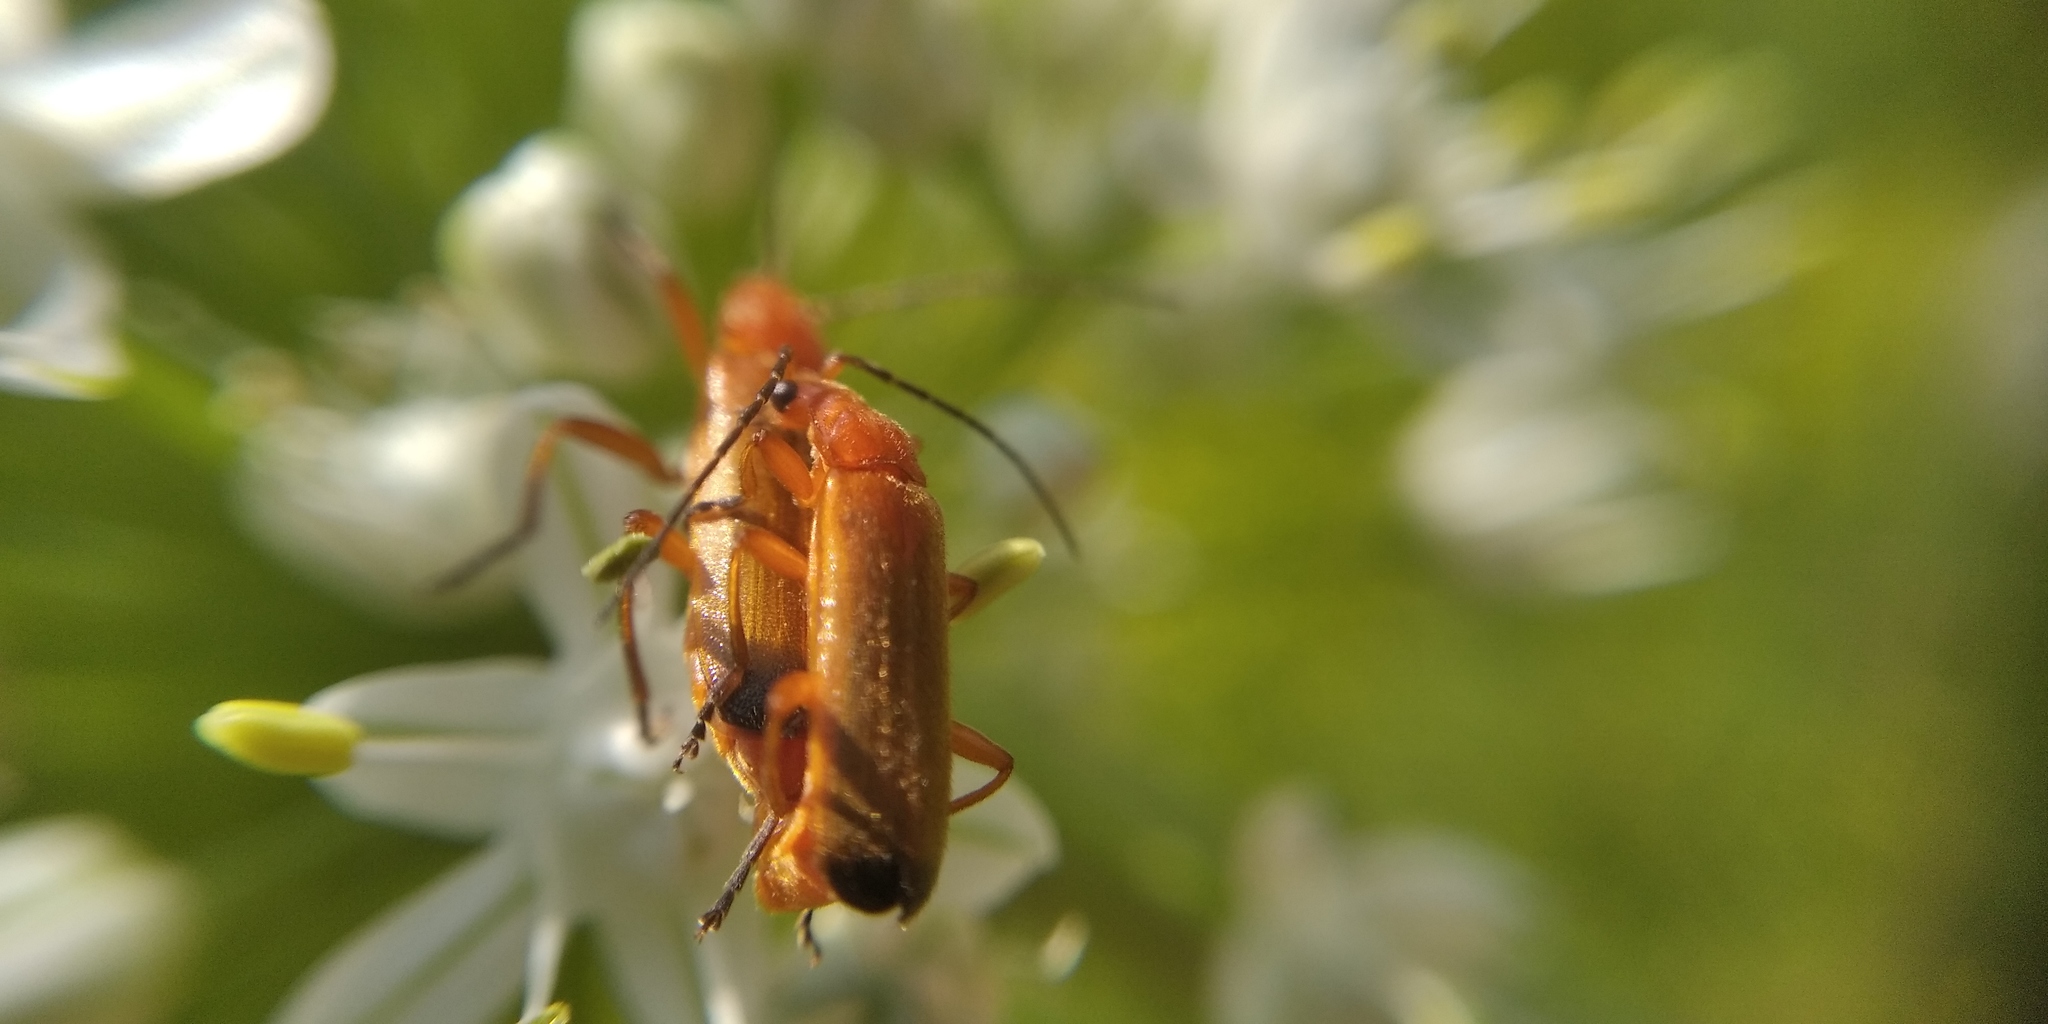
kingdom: Animalia
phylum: Arthropoda
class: Insecta
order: Coleoptera
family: Cantharidae
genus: Rhagonycha
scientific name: Rhagonycha fulva
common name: Common red soldier beetle
